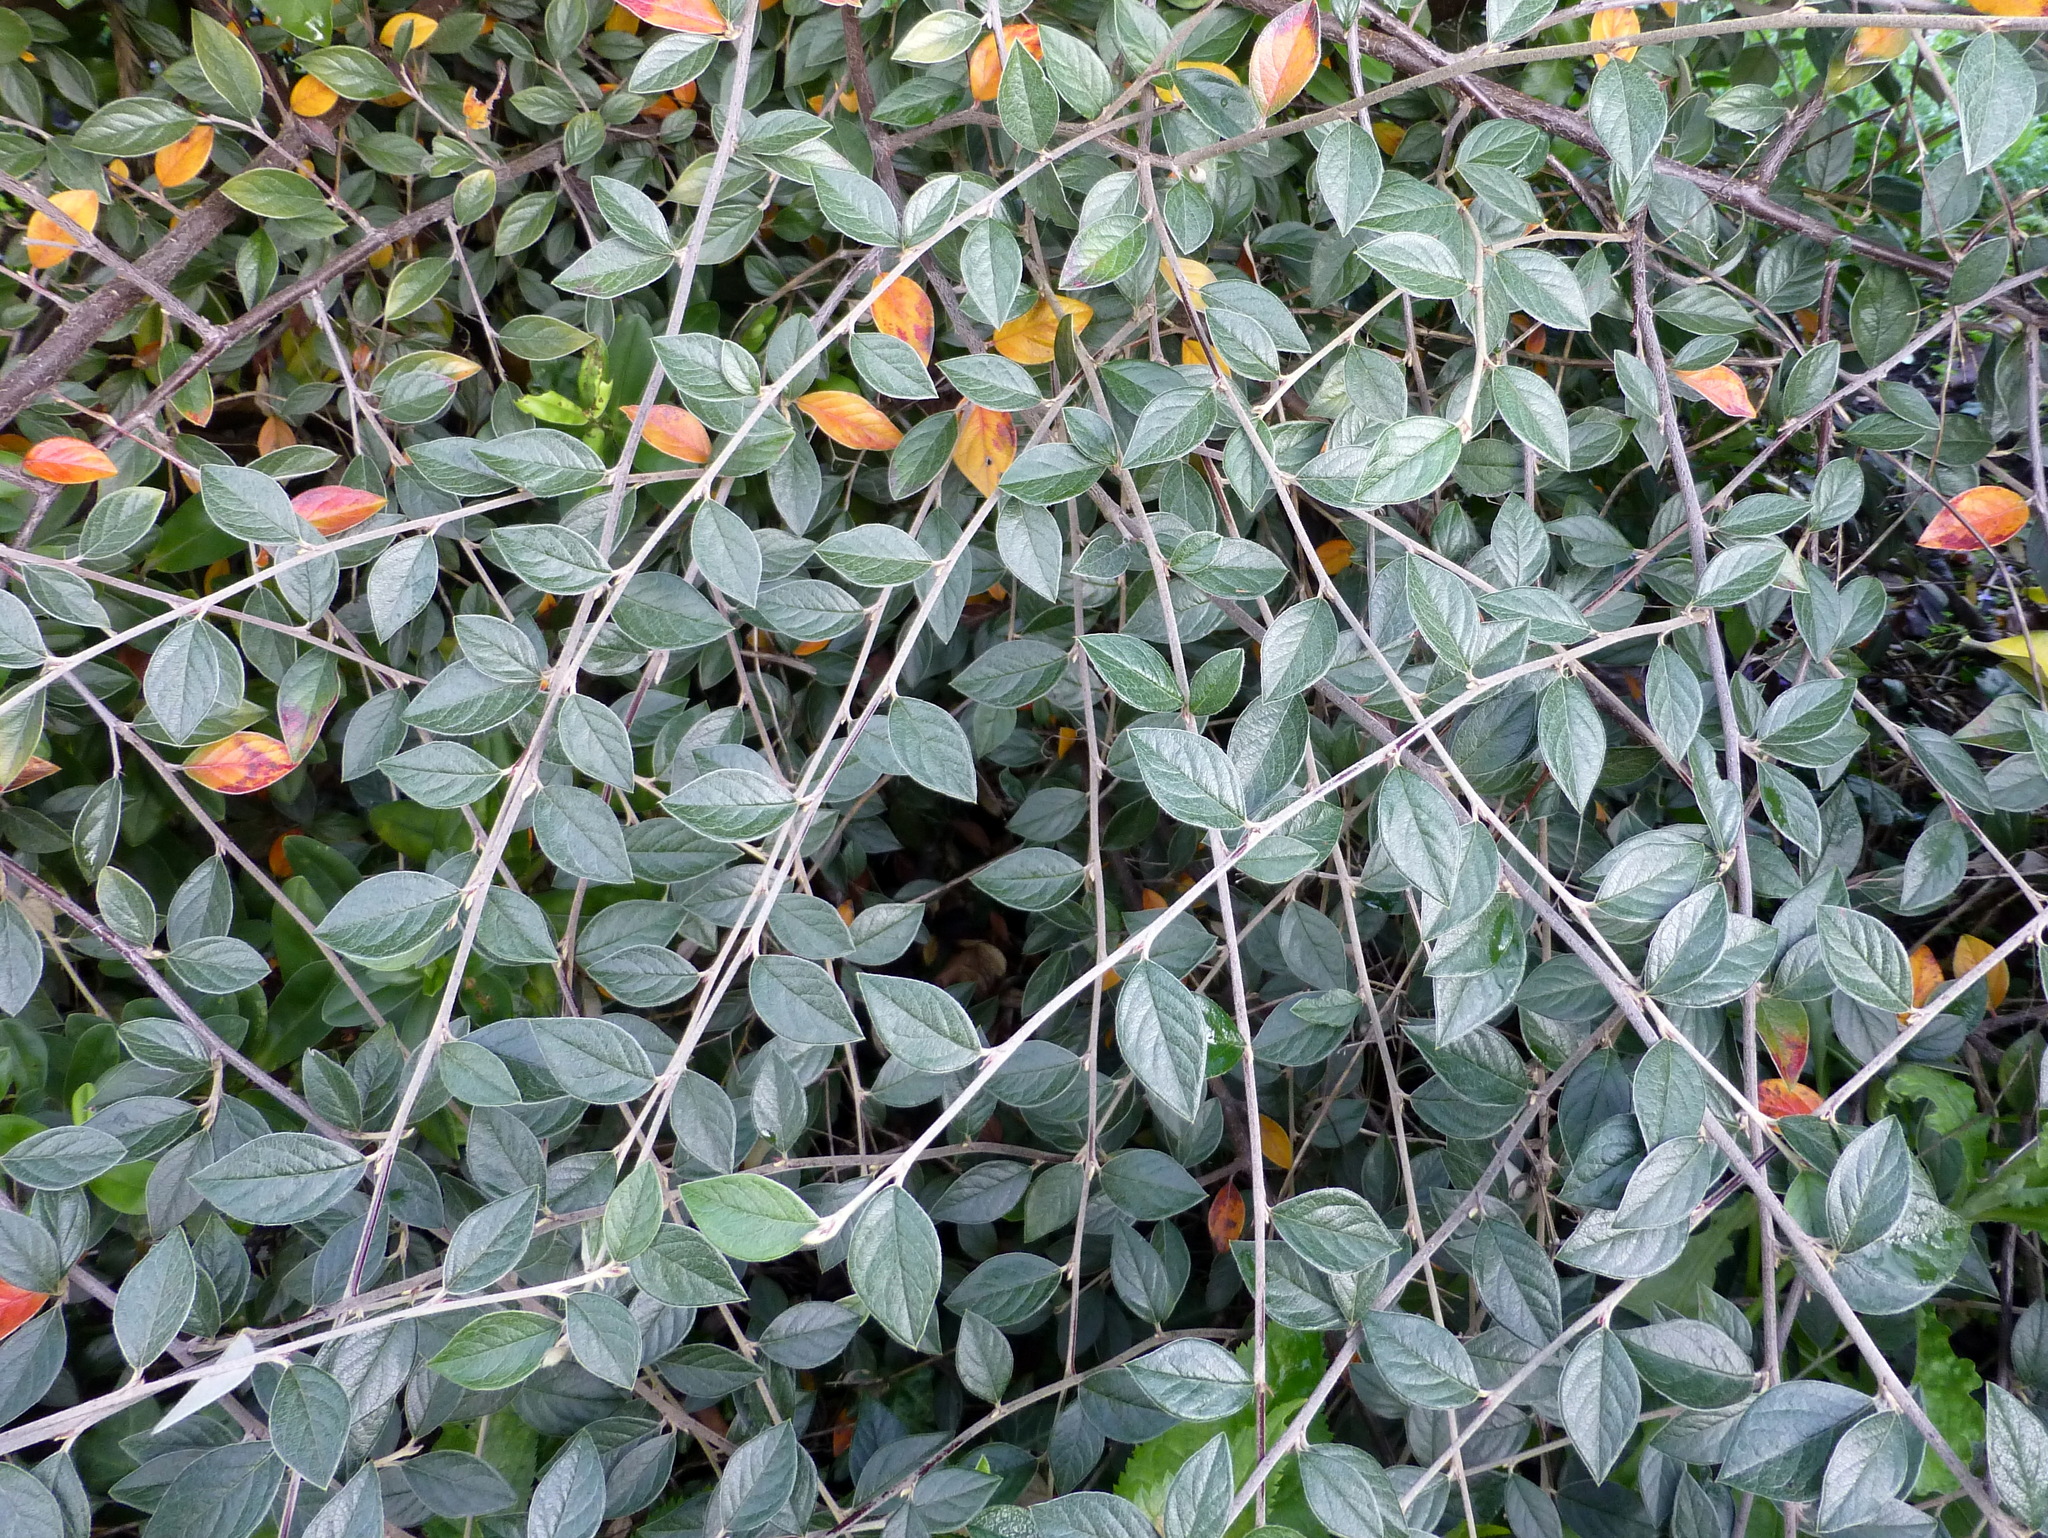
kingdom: Plantae
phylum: Tracheophyta
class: Magnoliopsida
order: Rosales
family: Rosaceae
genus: Cotoneaster
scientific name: Cotoneaster franchetii
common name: Franchet's cotoneaster
